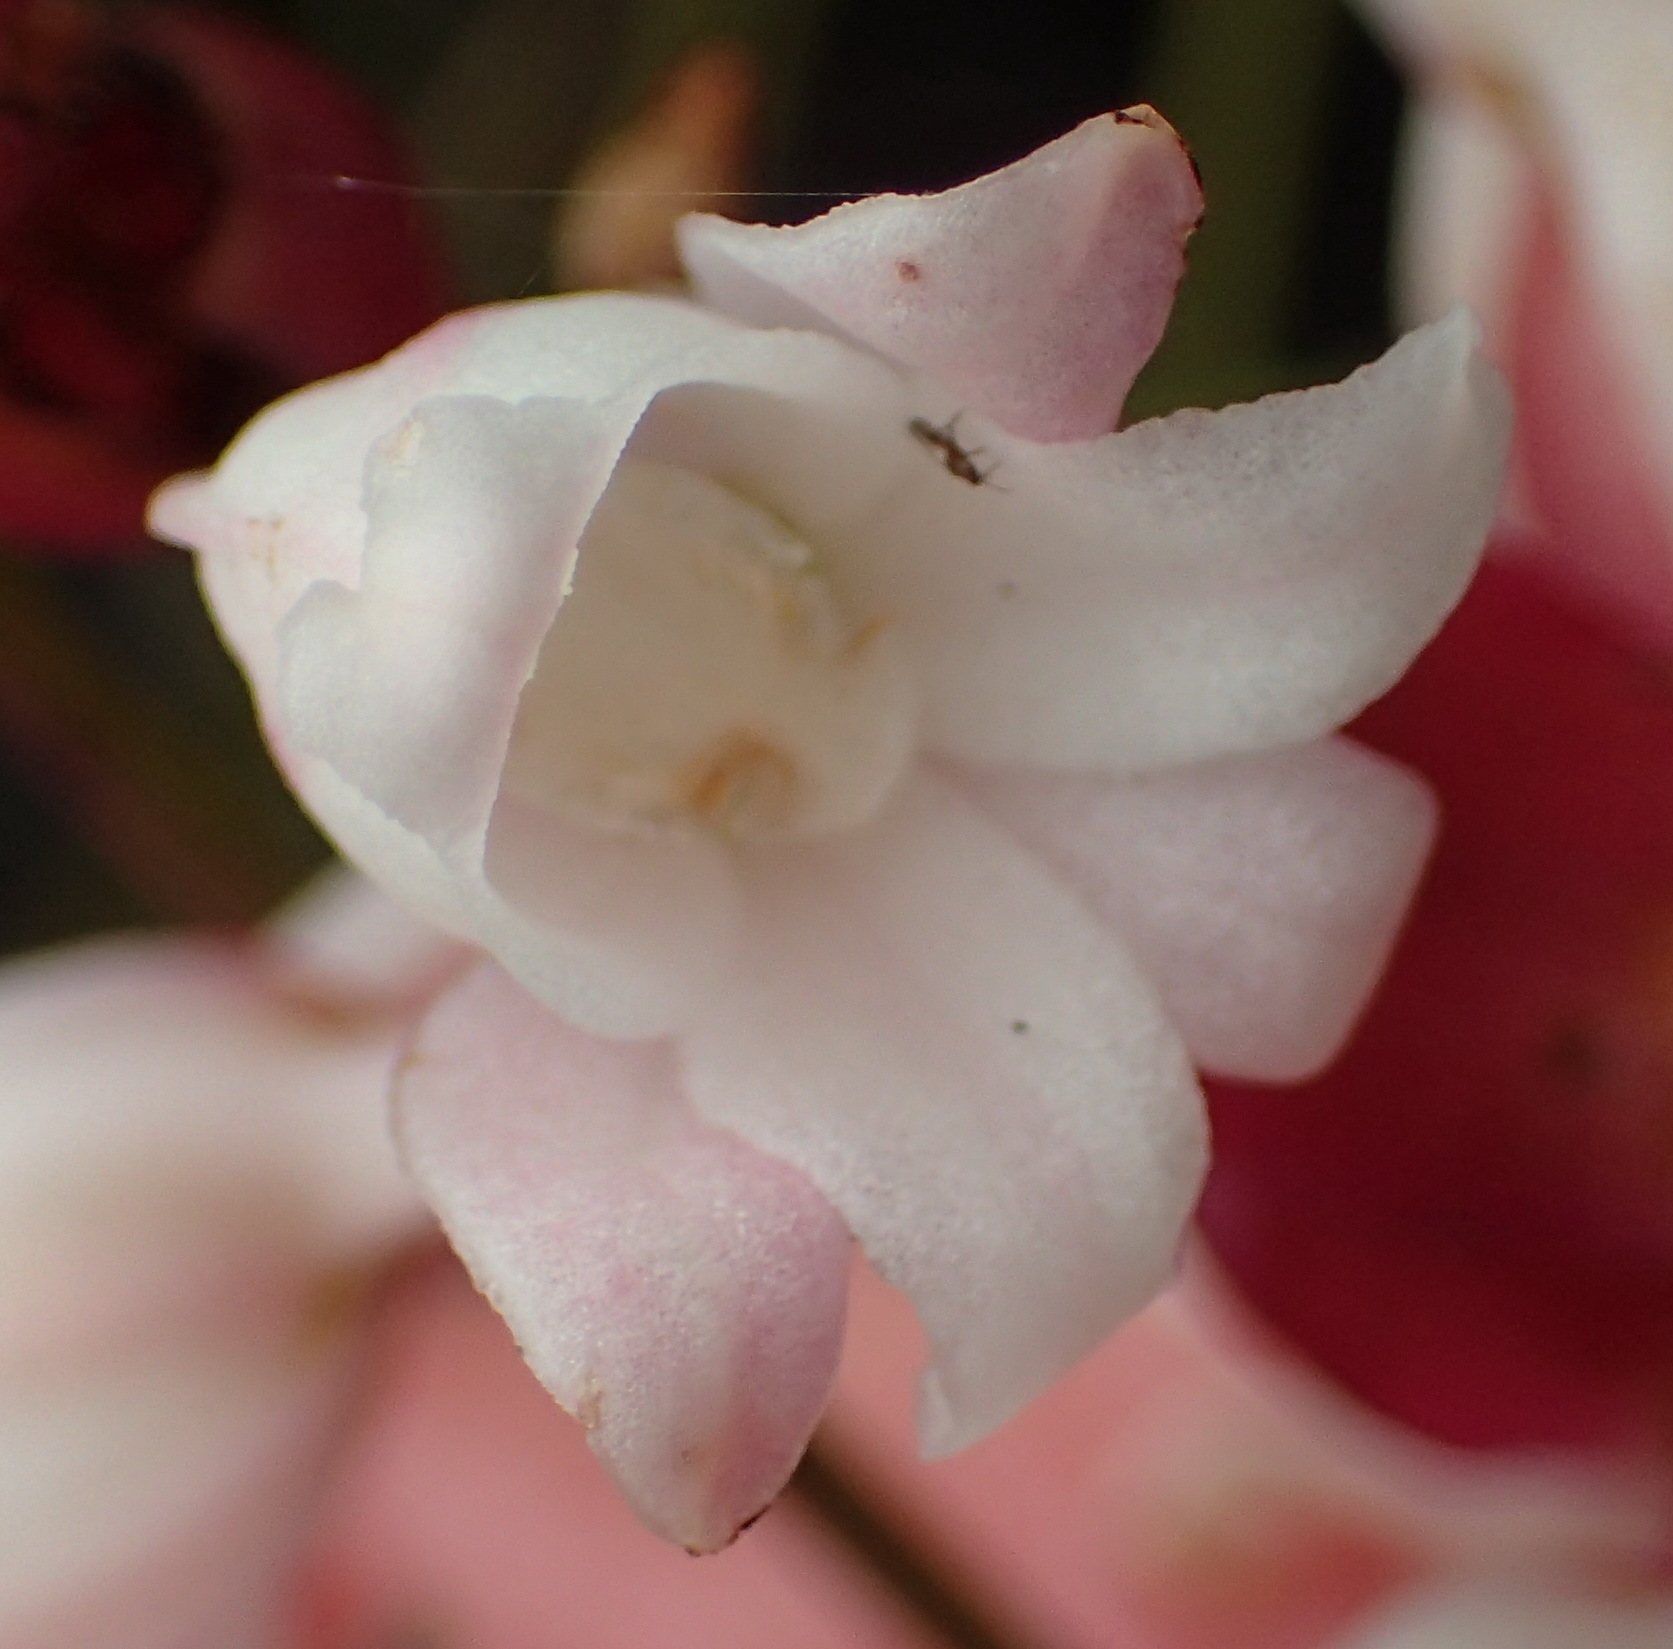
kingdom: Plantae
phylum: Tracheophyta
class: Liliopsida
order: Asparagales
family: Orchidaceae
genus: Satyrium
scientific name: Satyrium acuminatum
